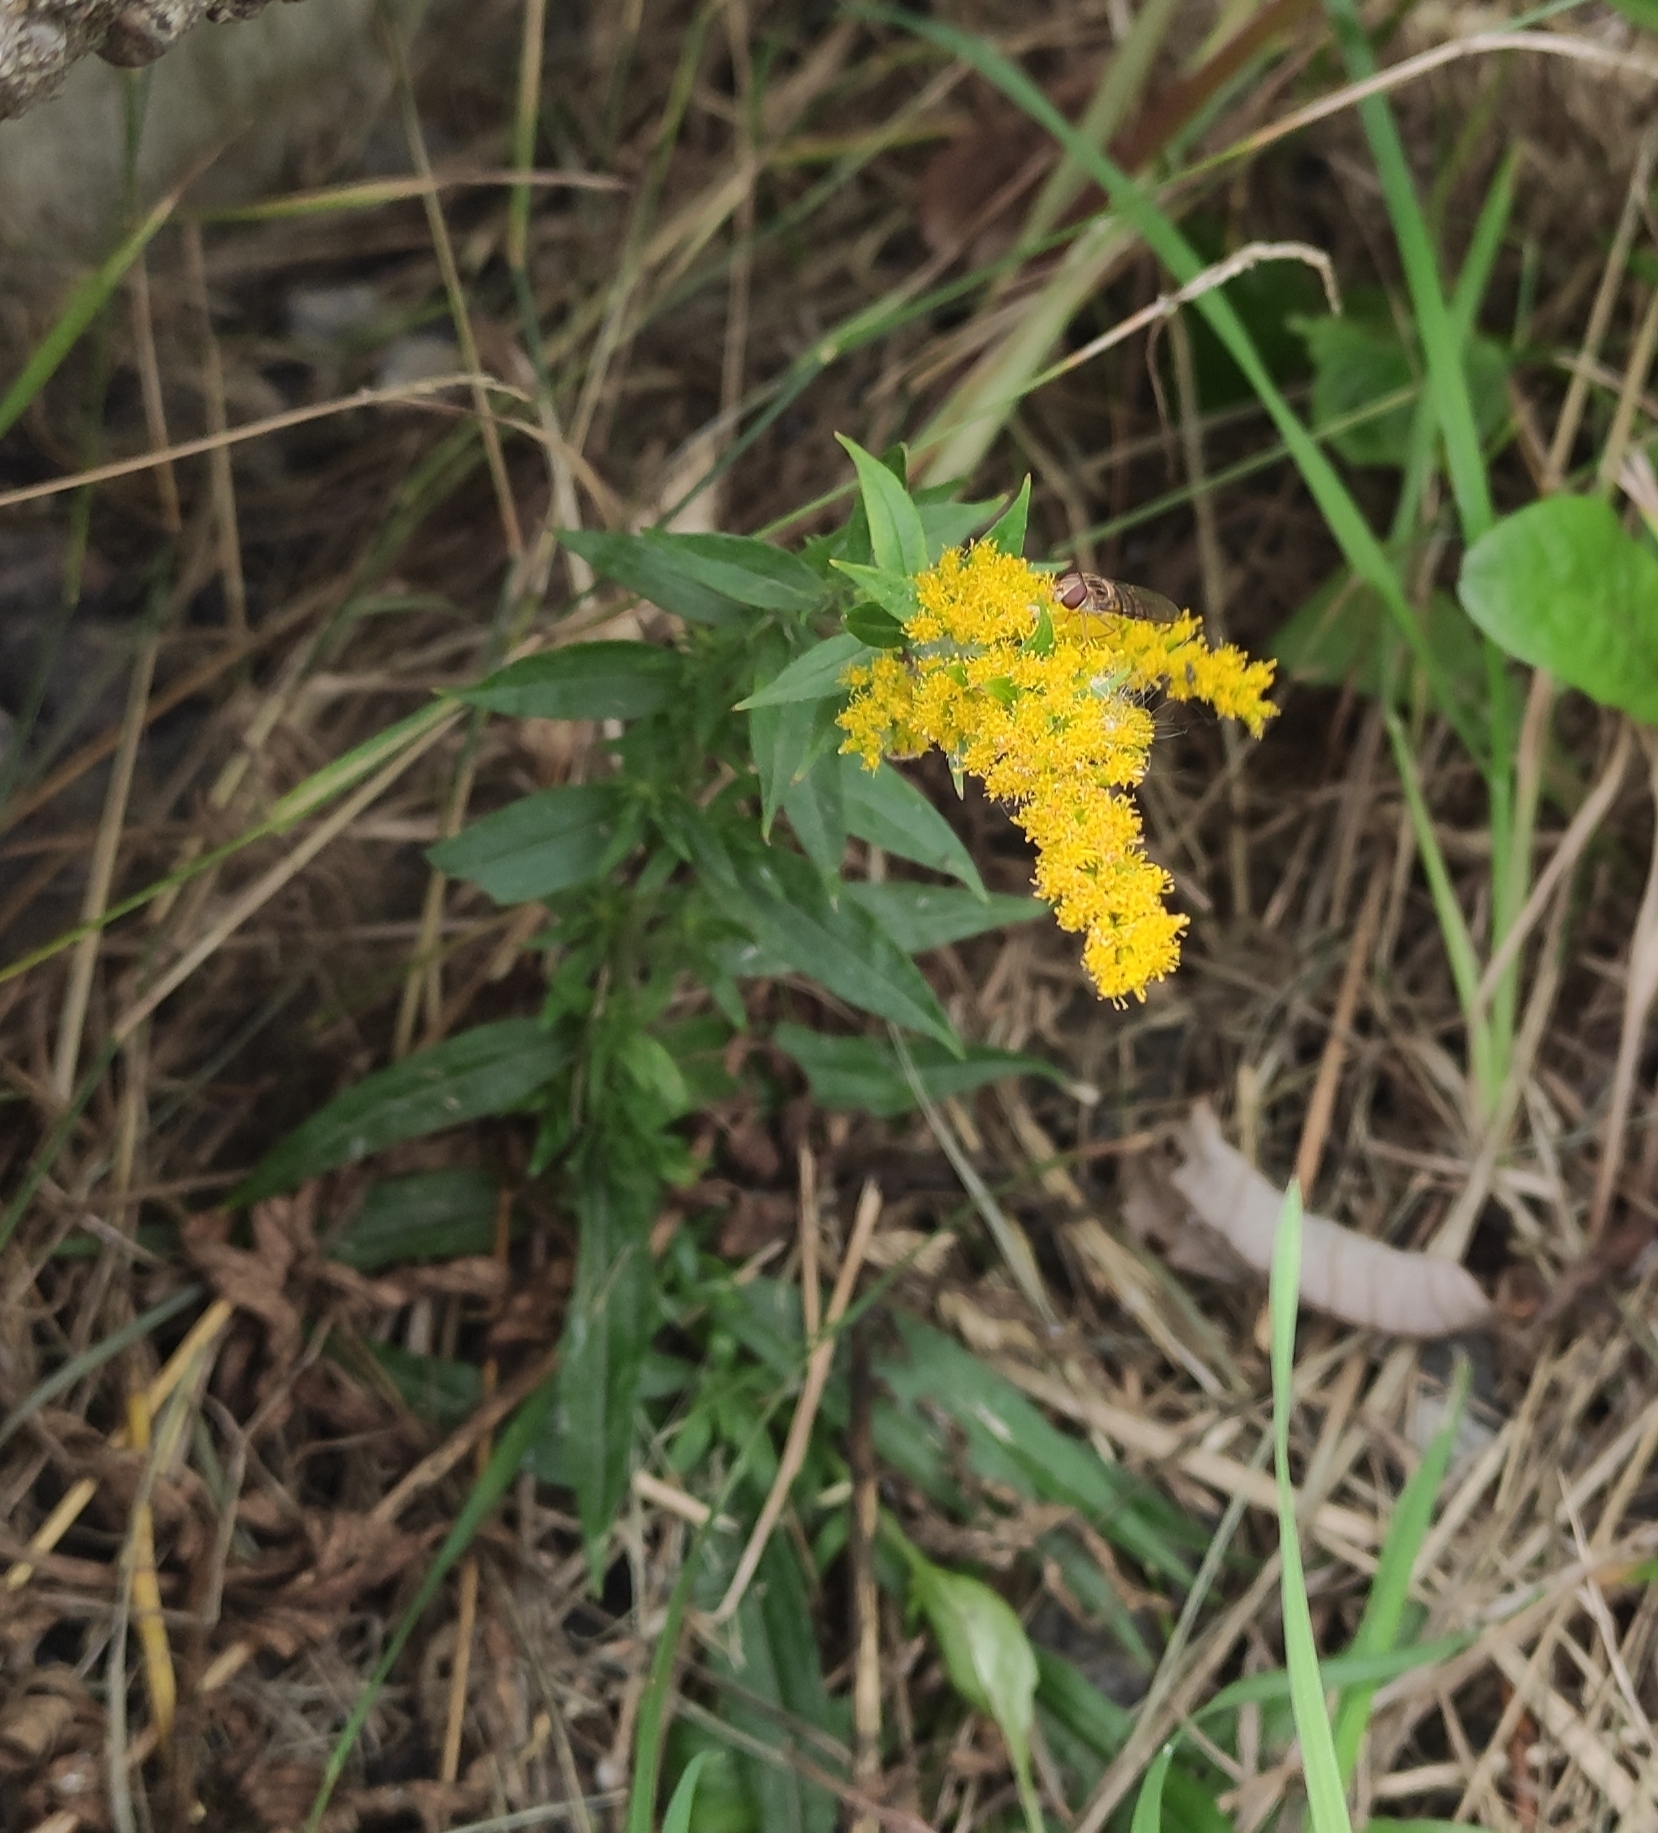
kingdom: Plantae
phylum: Tracheophyta
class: Magnoliopsida
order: Asterales
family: Asteraceae
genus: Solidago
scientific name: Solidago canadensis
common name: Canada goldenrod
